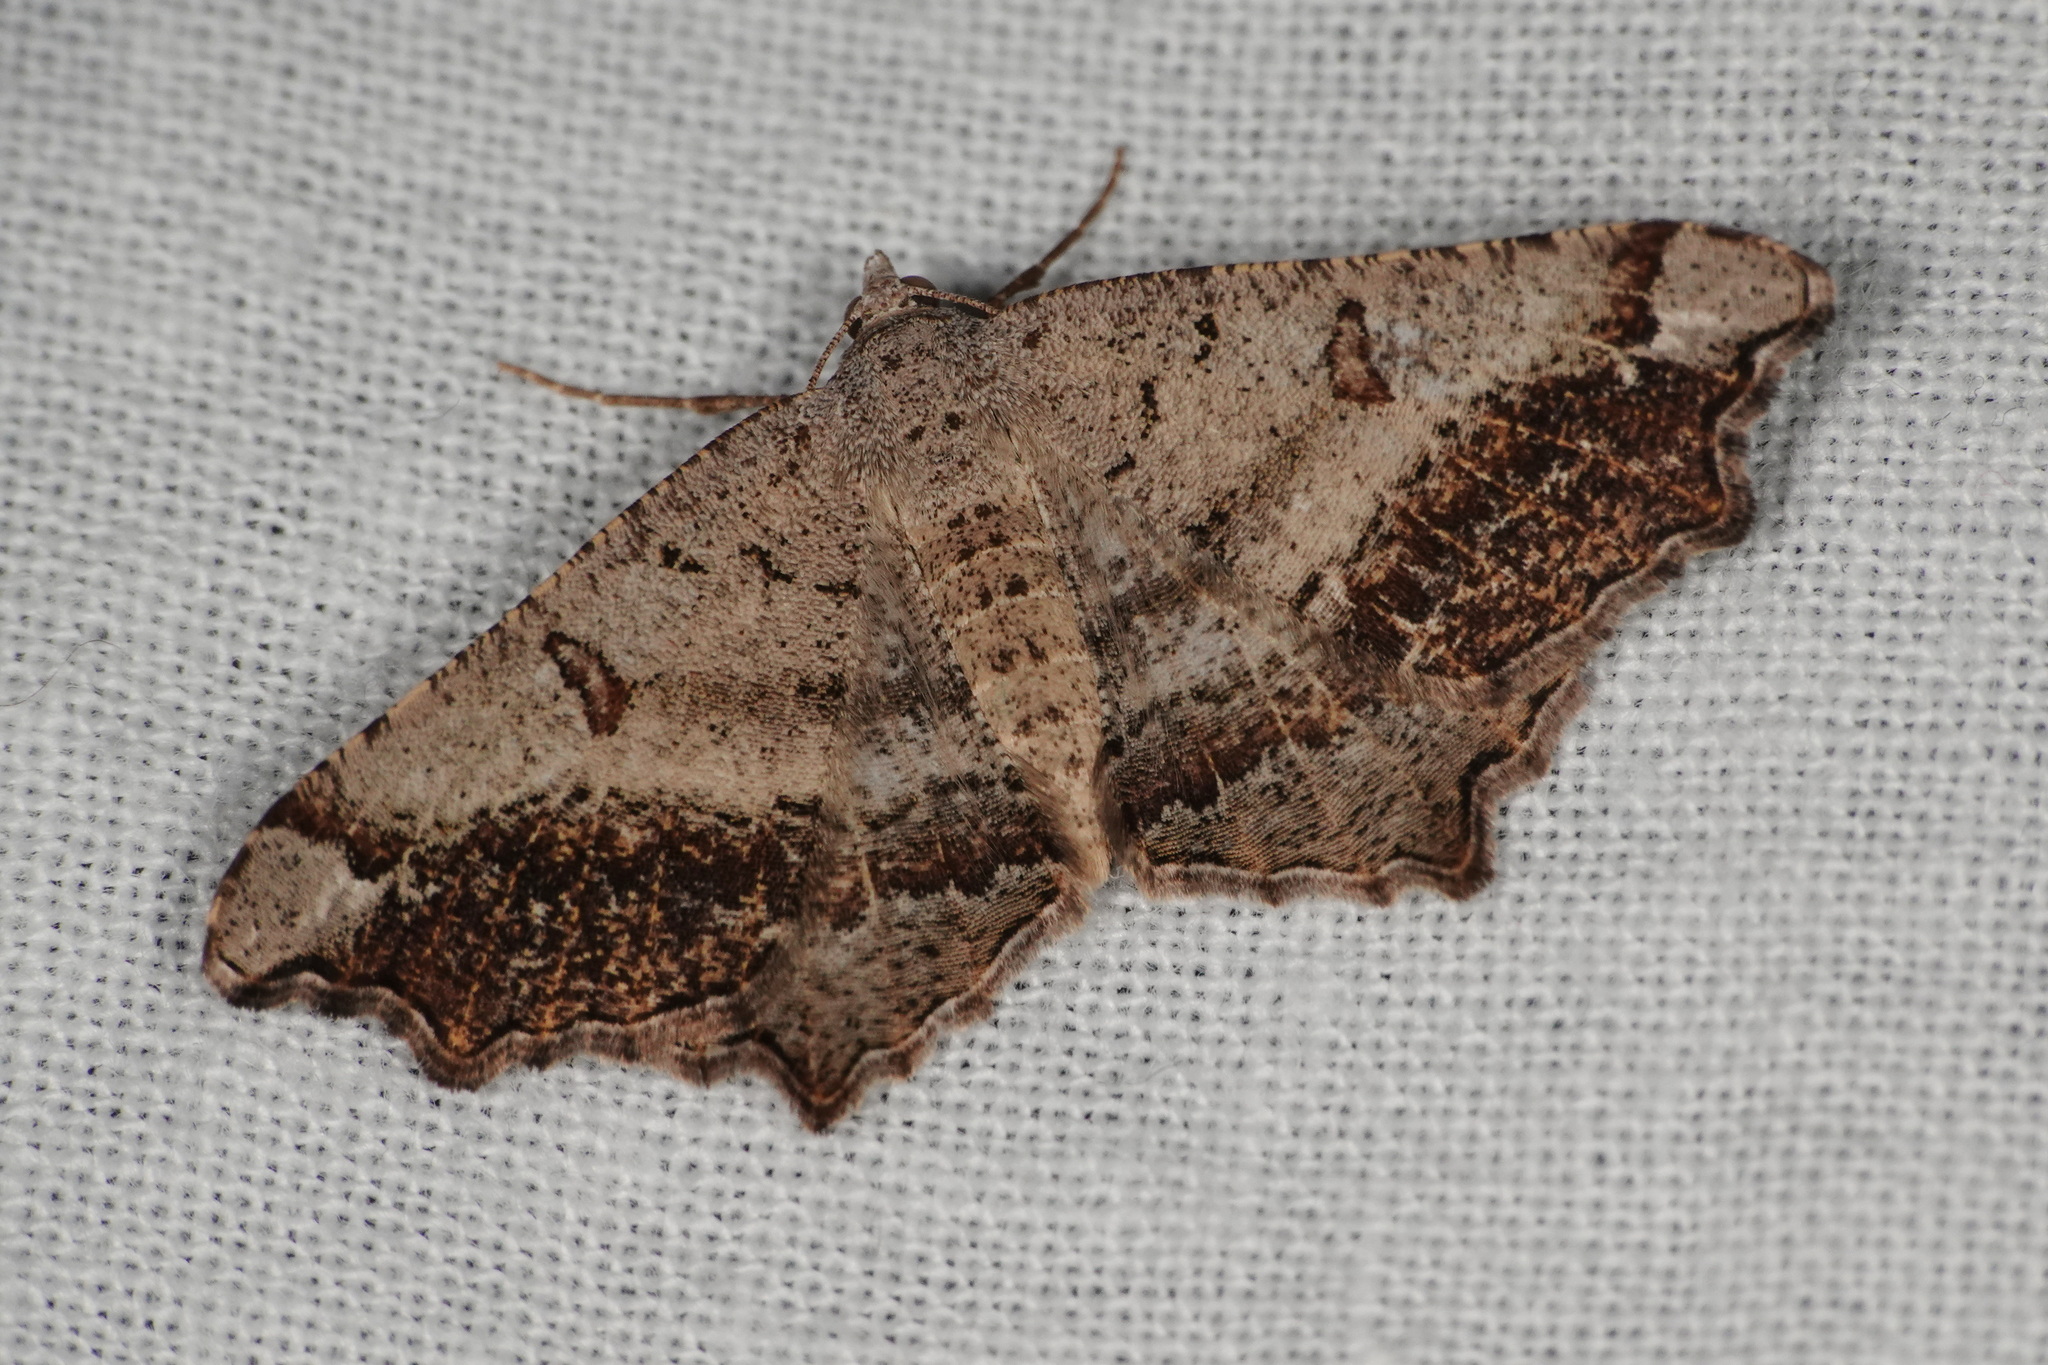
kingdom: Animalia
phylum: Arthropoda
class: Insecta
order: Lepidoptera
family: Geometridae
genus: Dissomorphia
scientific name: Dissomorphia australiaria
